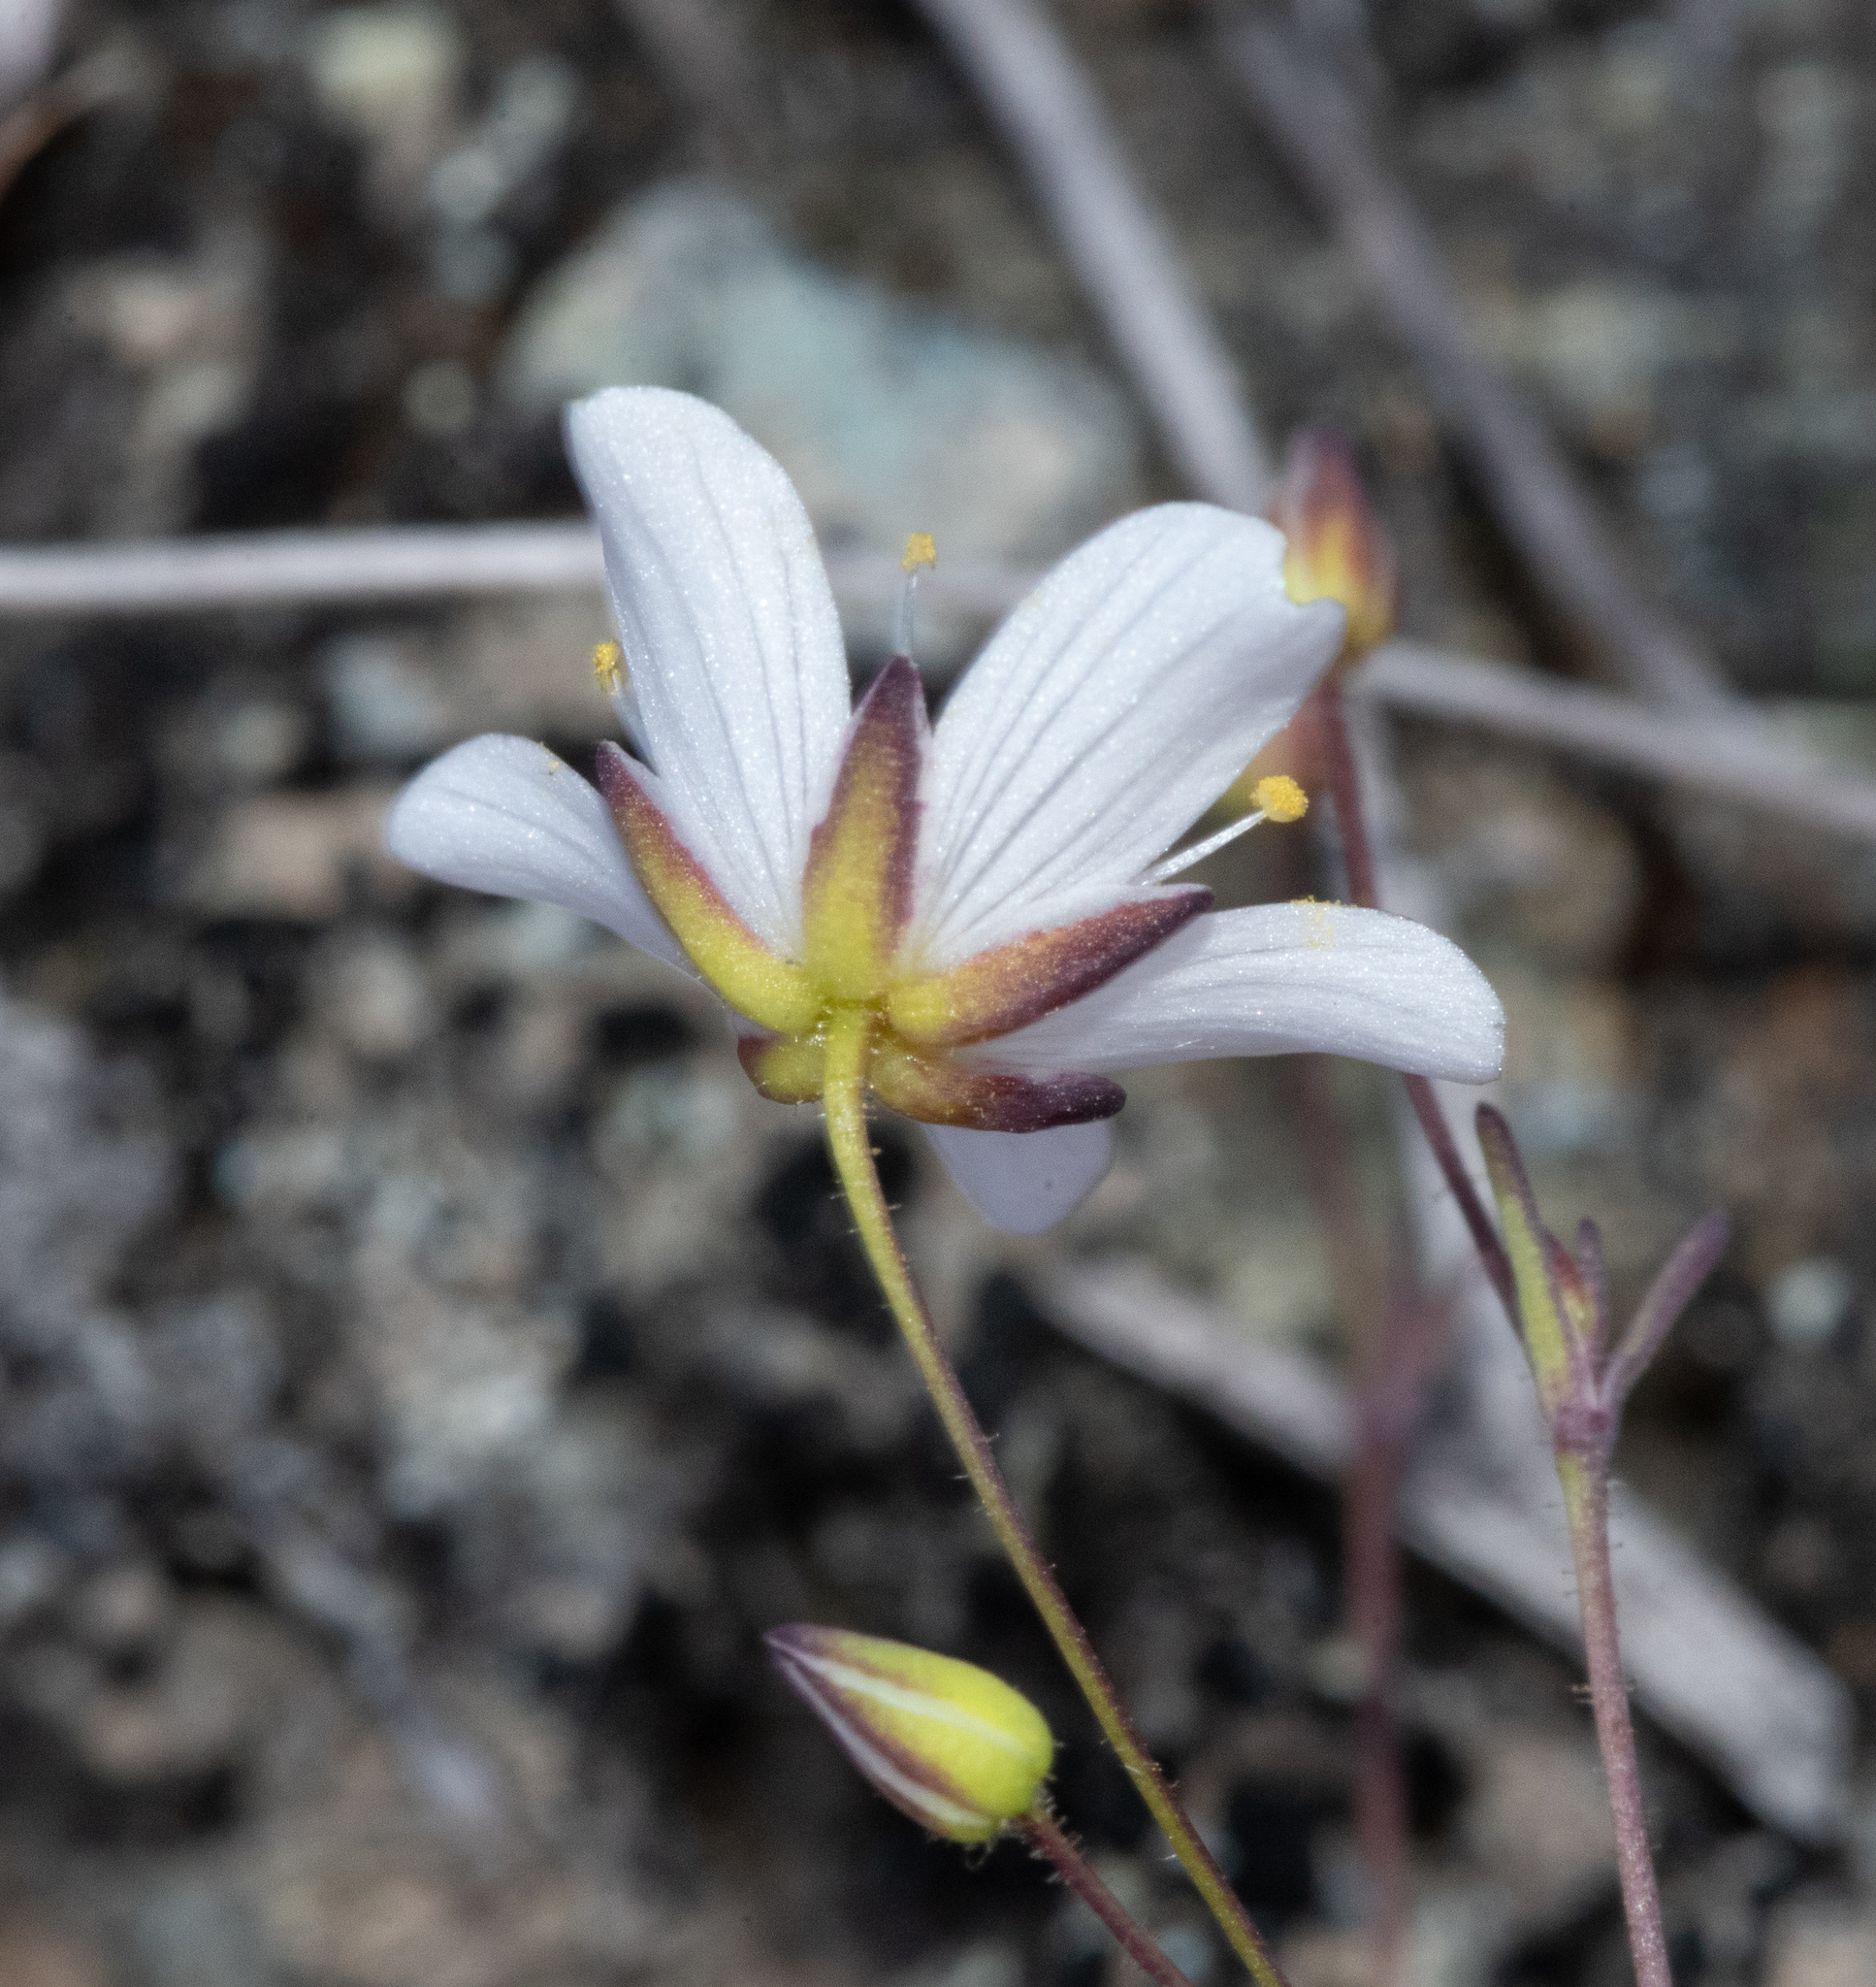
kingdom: Plantae
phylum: Tracheophyta
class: Magnoliopsida
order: Caryophyllales
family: Caryophyllaceae
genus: Sabulina
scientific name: Sabulina douglasii
